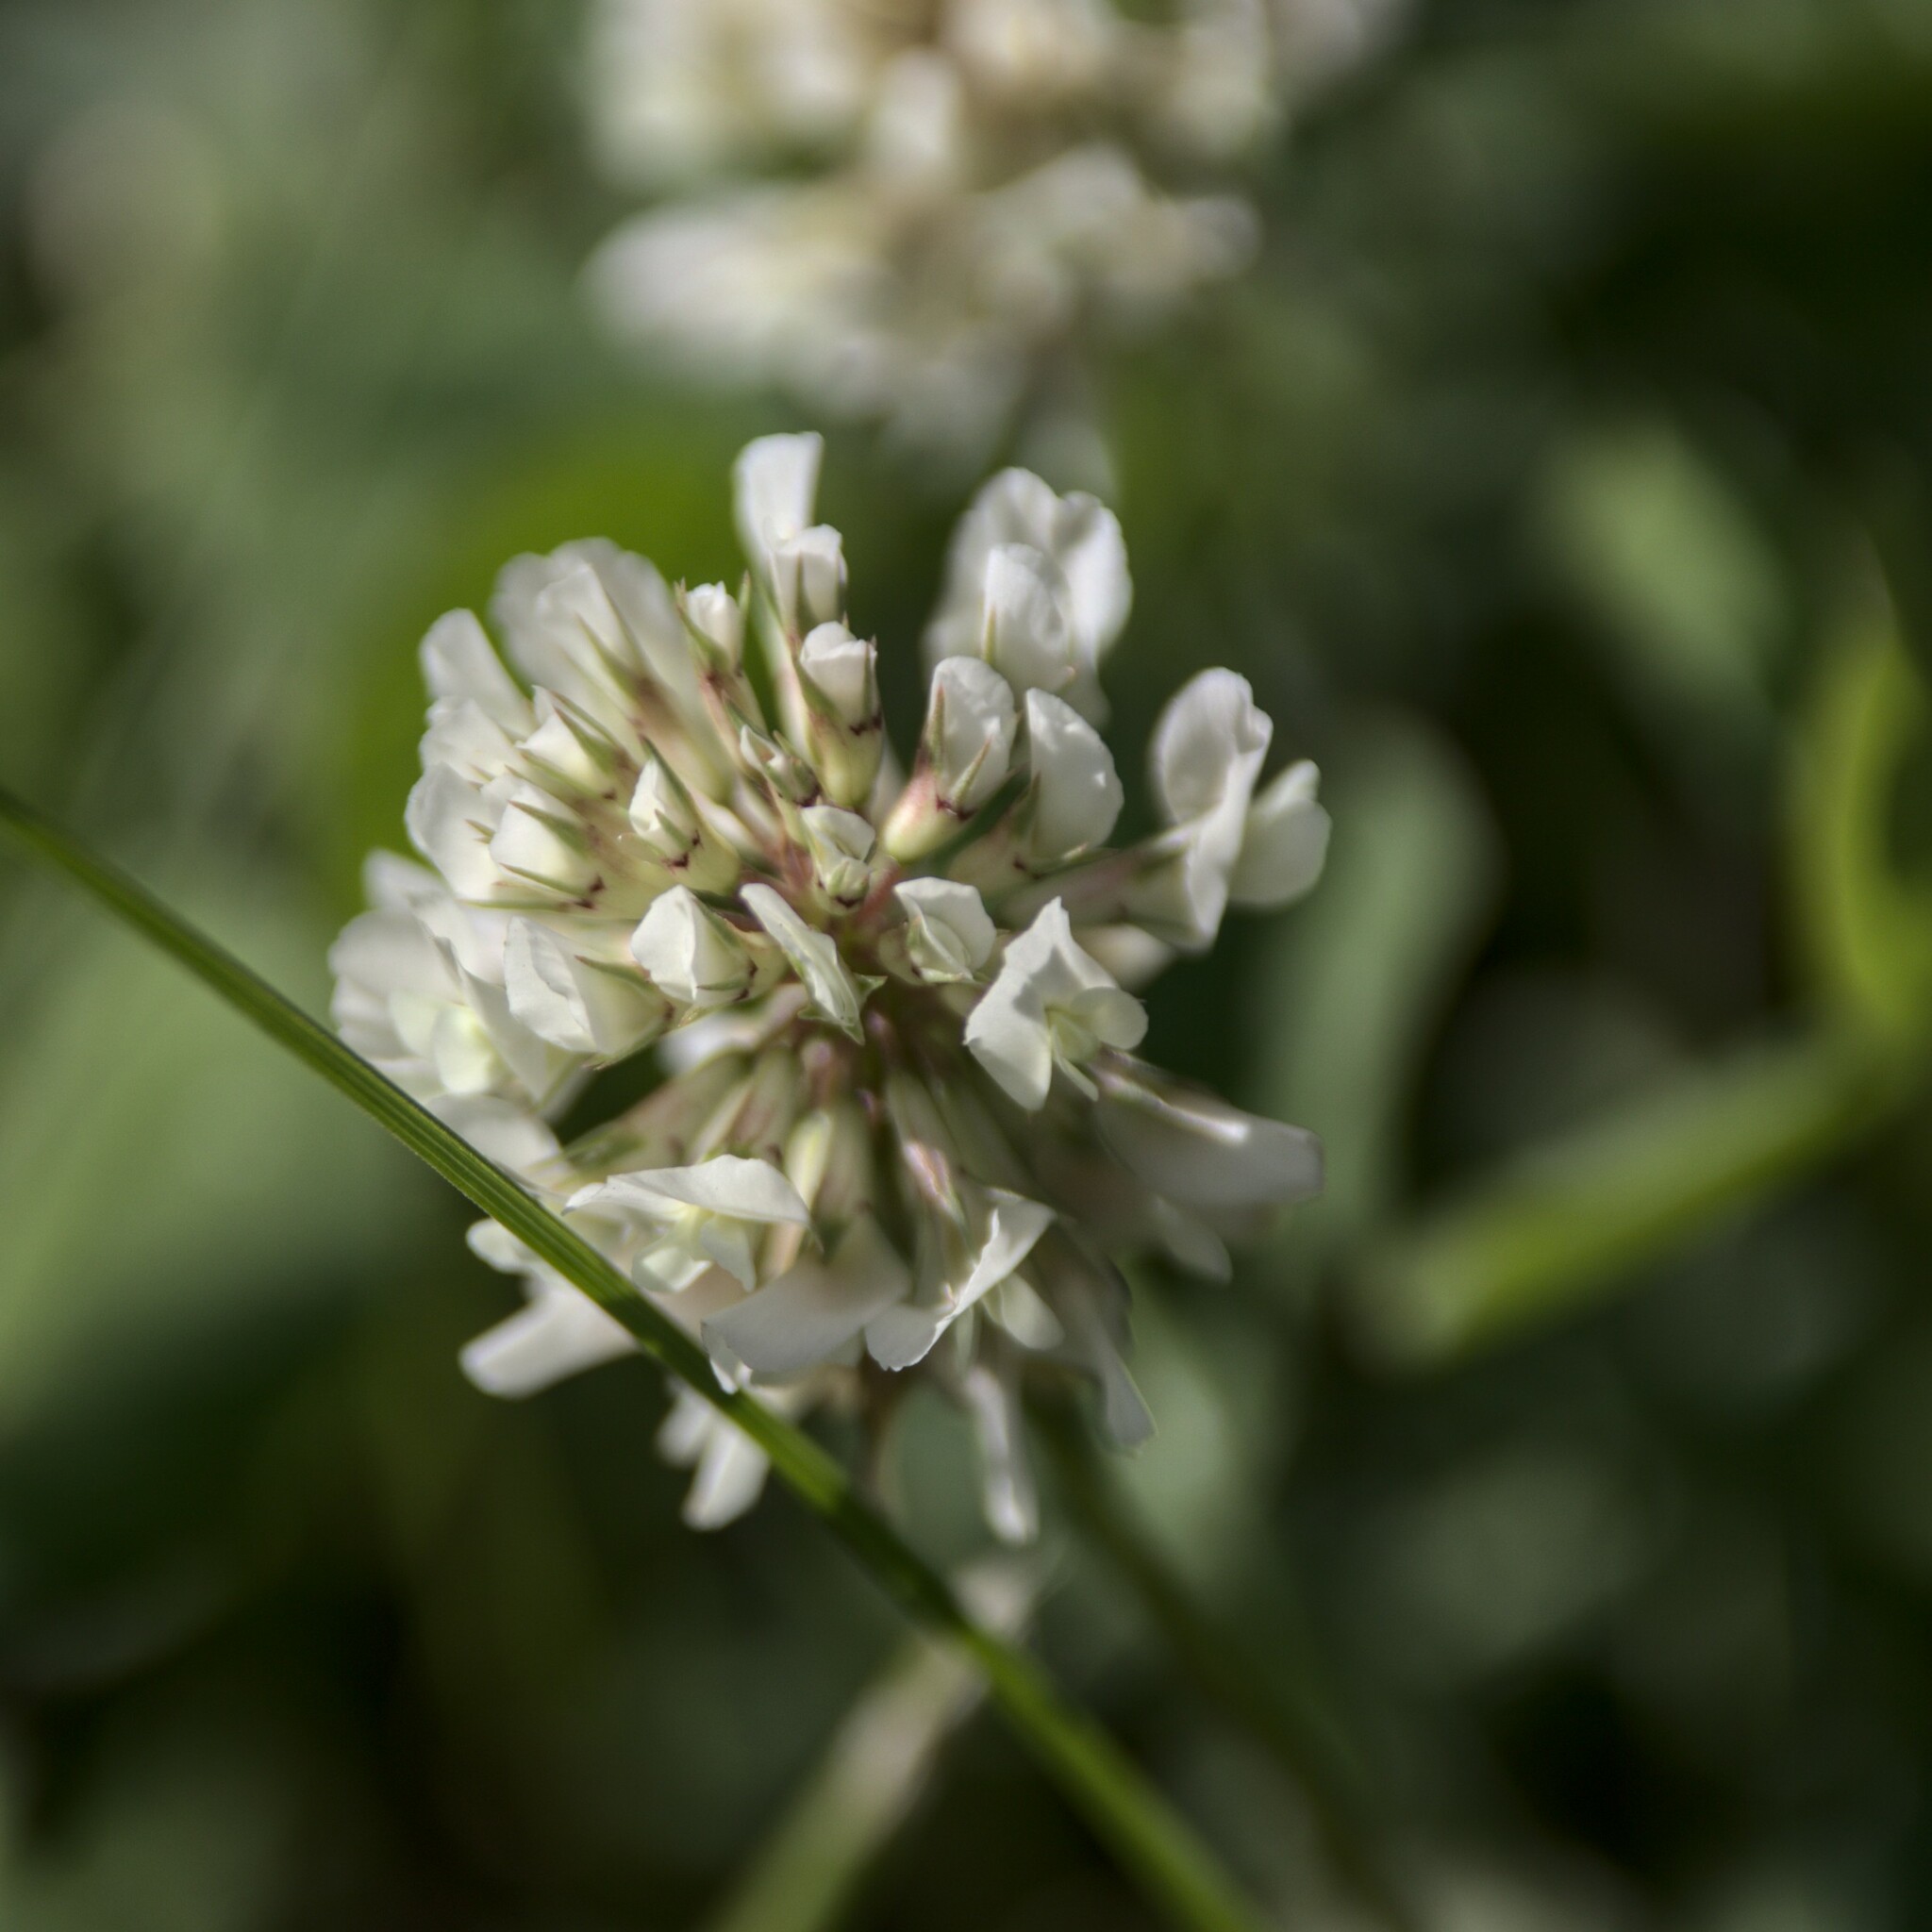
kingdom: Plantae
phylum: Tracheophyta
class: Magnoliopsida
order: Fabales
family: Fabaceae
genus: Trifolium
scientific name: Trifolium repens
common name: White clover
